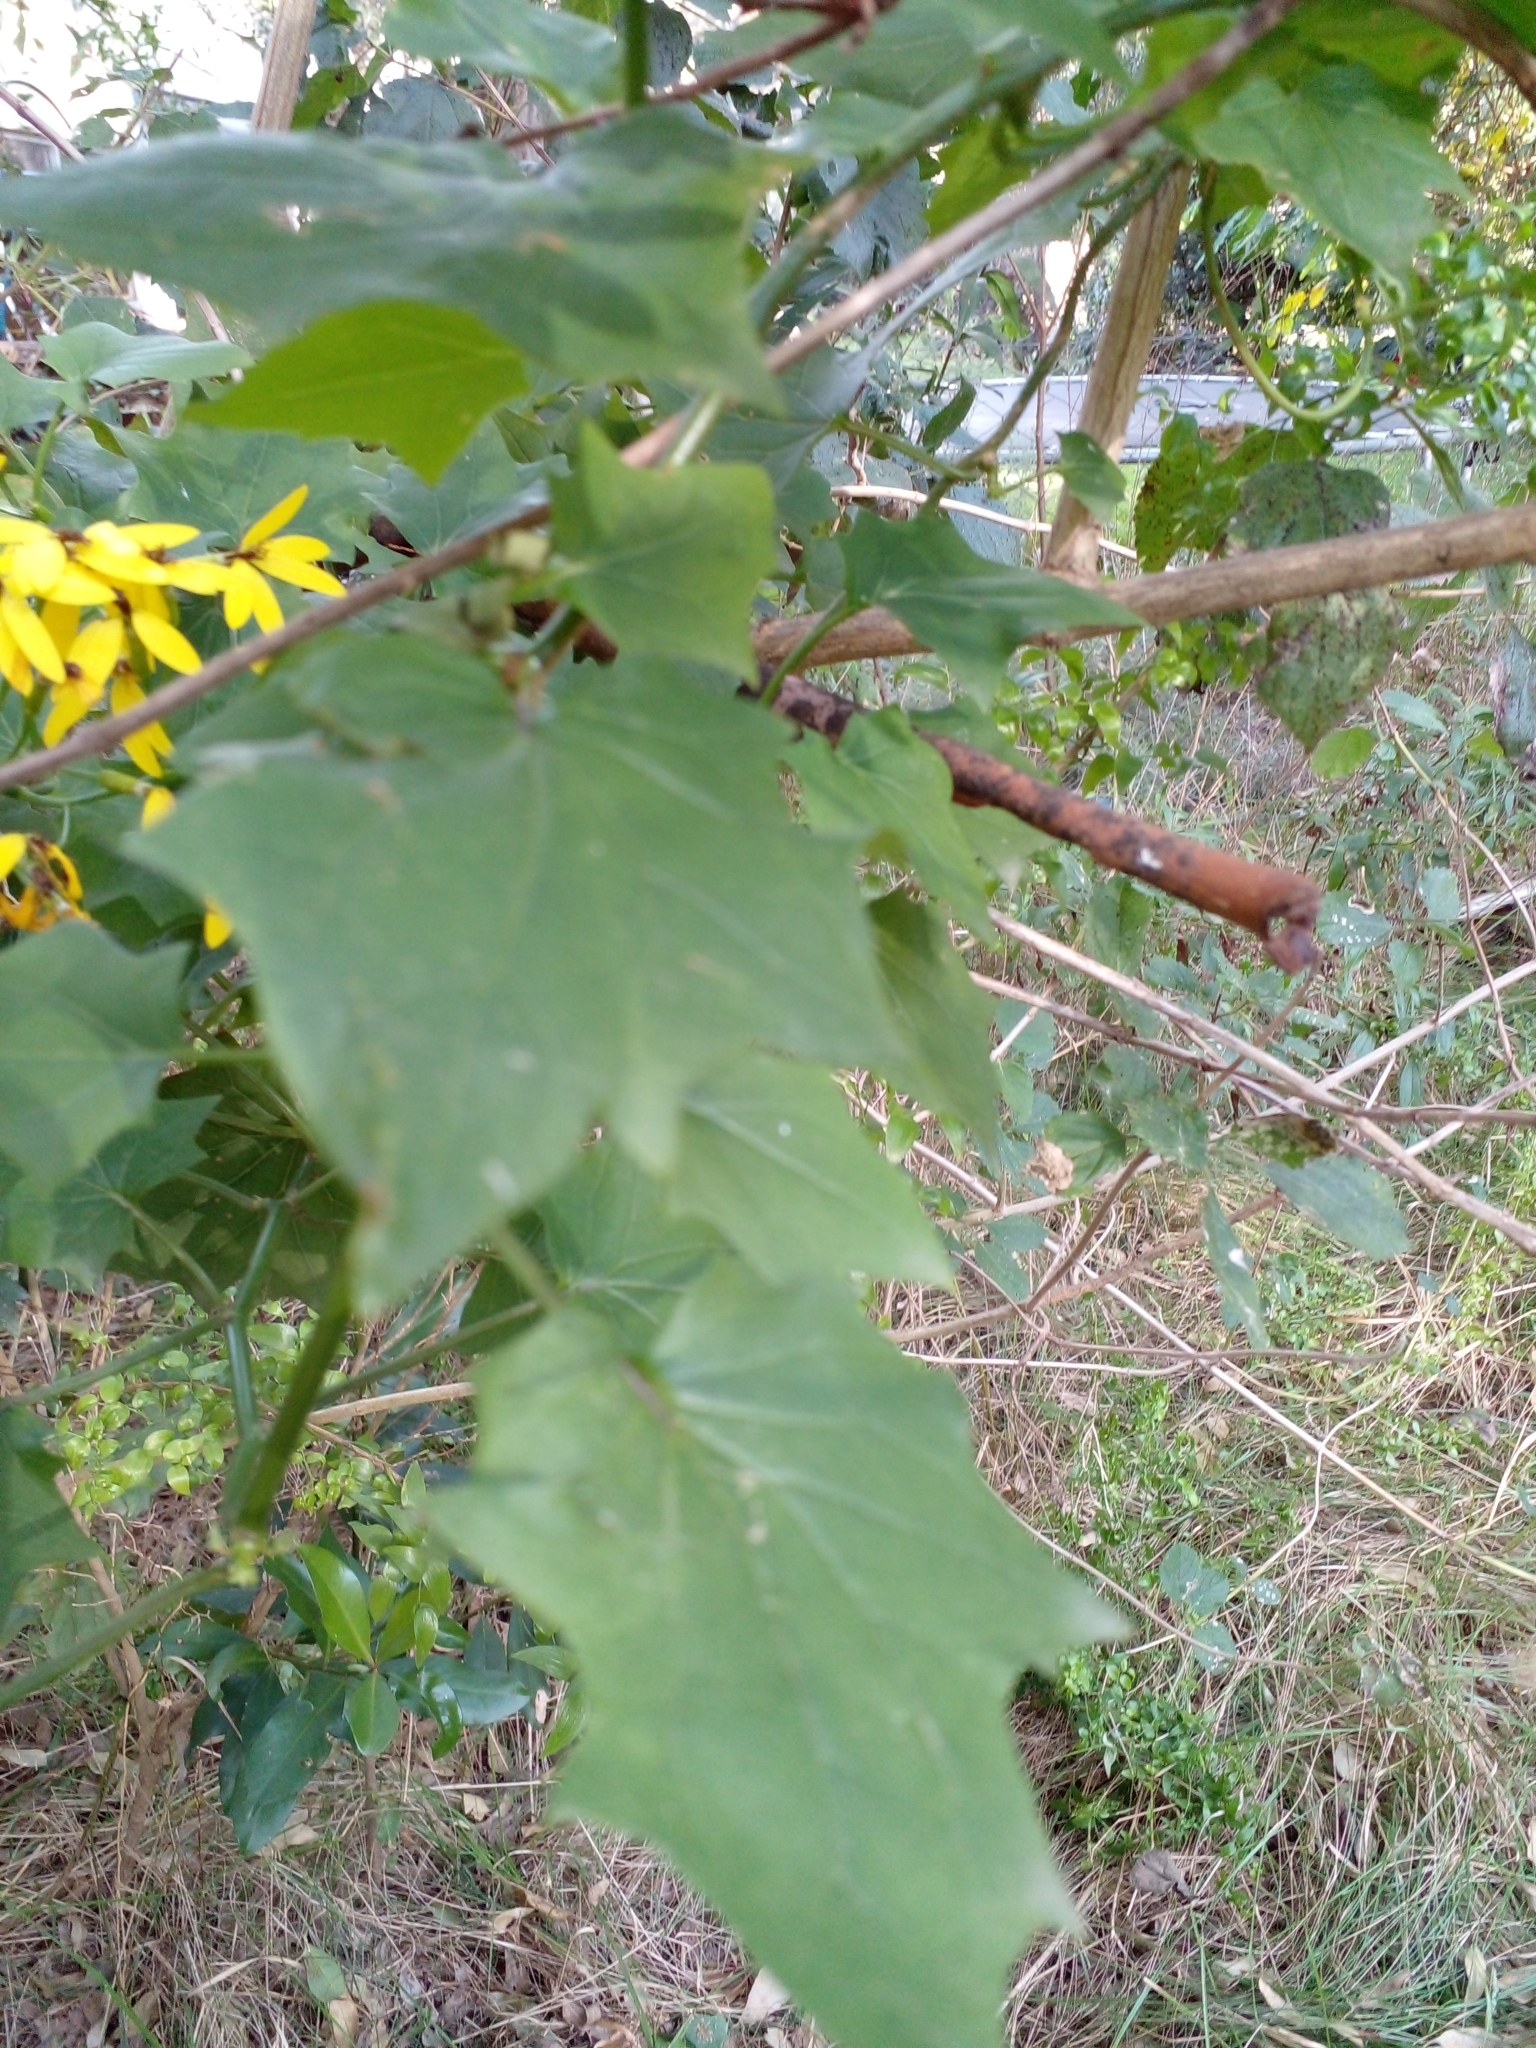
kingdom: Plantae
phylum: Tracheophyta
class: Magnoliopsida
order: Asterales
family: Asteraceae
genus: Senecio
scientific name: Senecio tamoides
